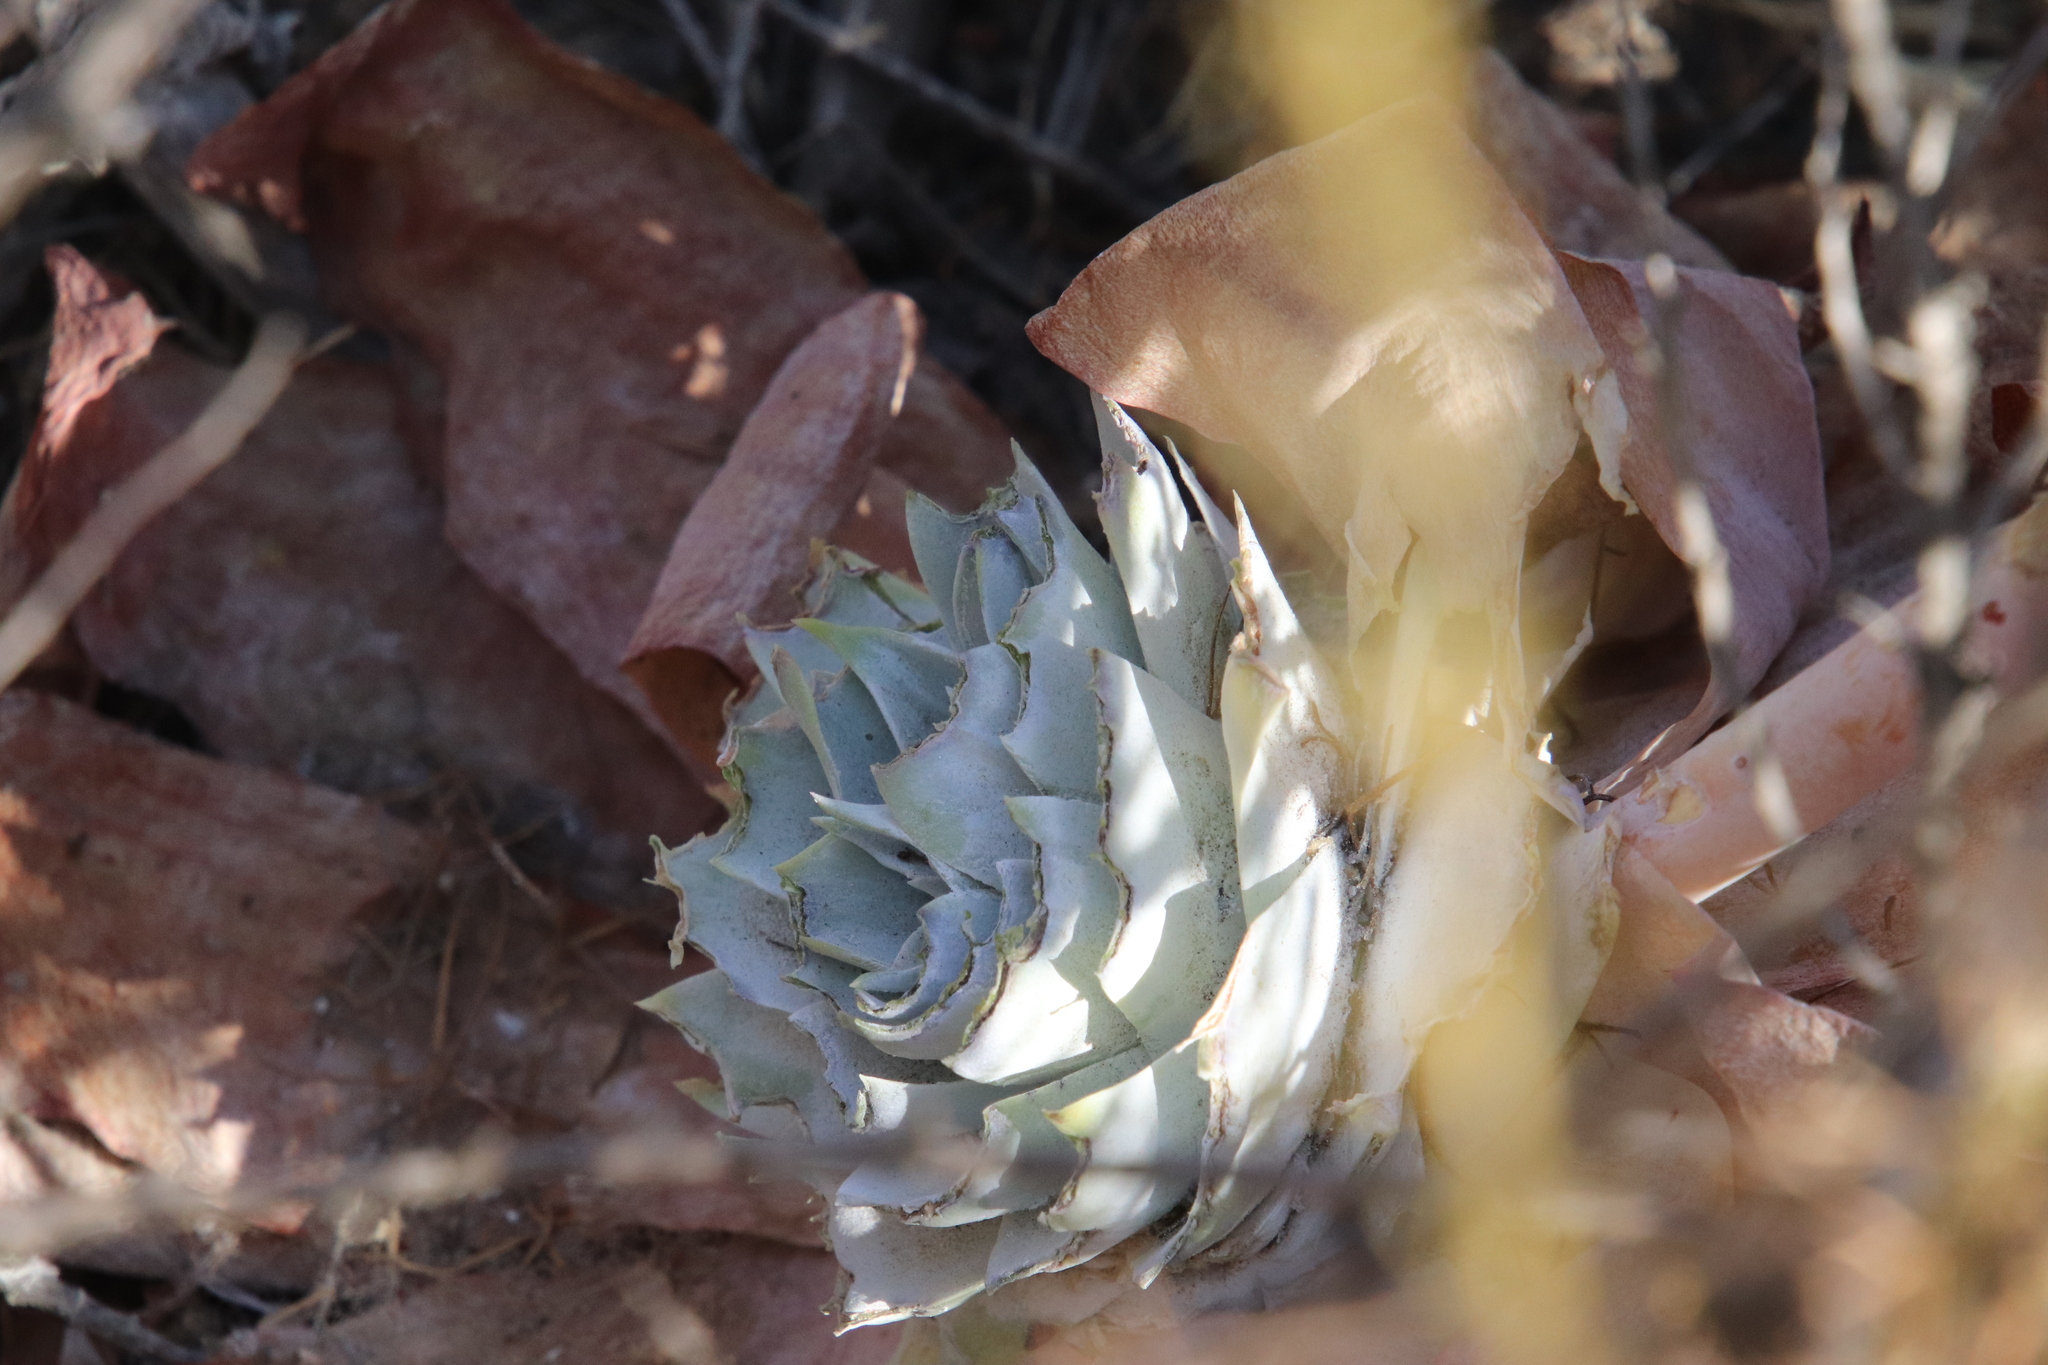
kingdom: Plantae
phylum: Tracheophyta
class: Magnoliopsida
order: Saxifragales
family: Crassulaceae
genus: Dudleya
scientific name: Dudleya pulverulenta
